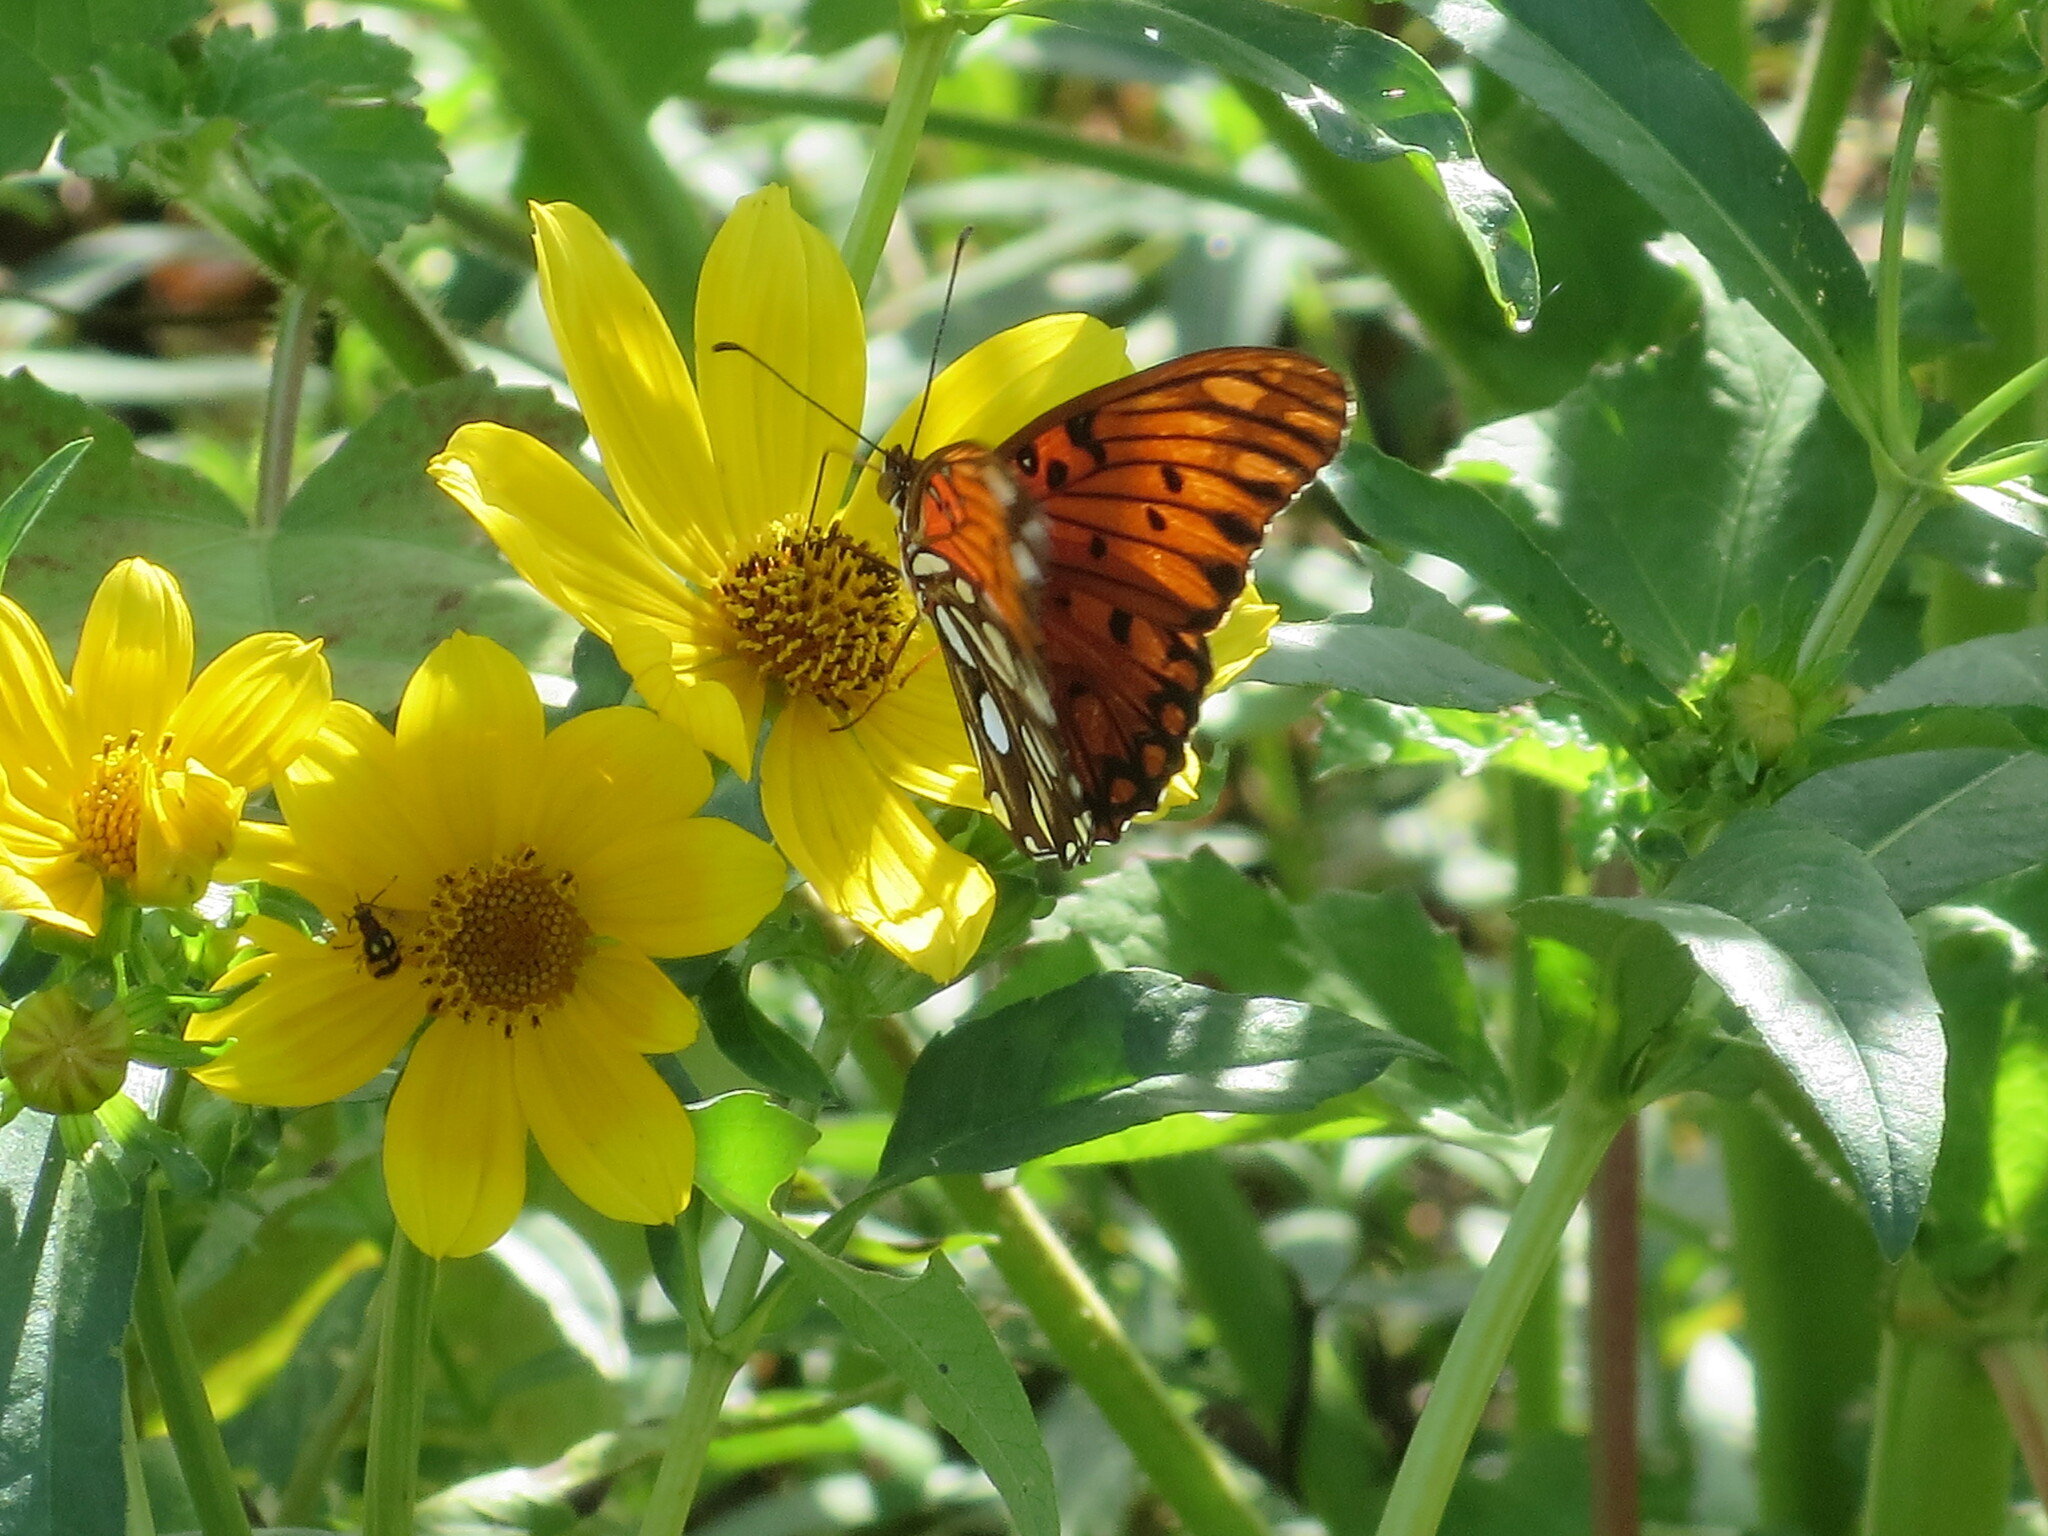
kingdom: Animalia
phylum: Arthropoda
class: Insecta
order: Lepidoptera
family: Nymphalidae
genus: Dione
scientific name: Dione vanillae
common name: Gulf fritillary
